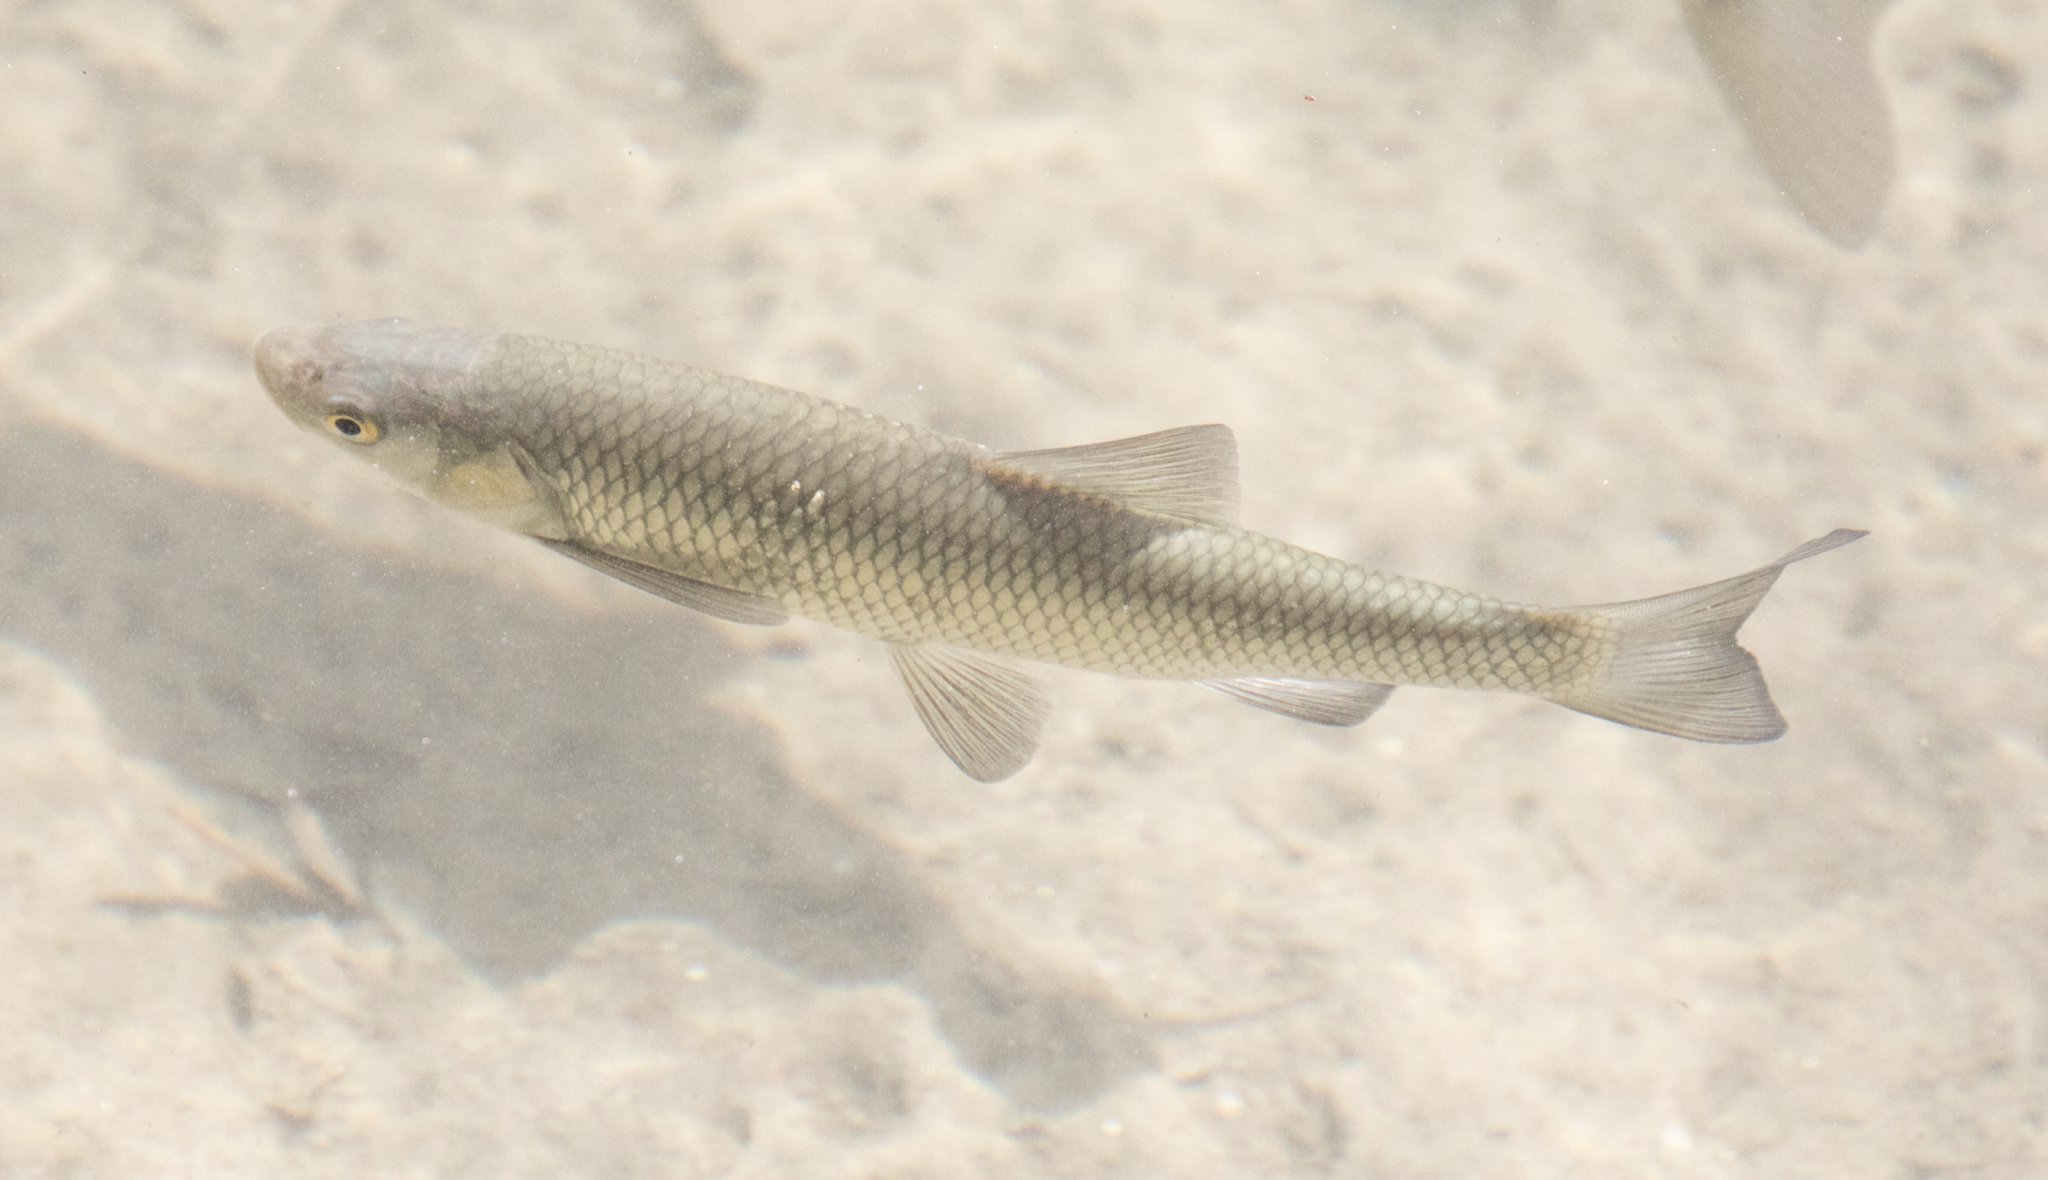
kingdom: Animalia
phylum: Chordata
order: Cypriniformes
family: Cyprinidae
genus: Squalius
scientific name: Squalius squalus
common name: Italian chub
